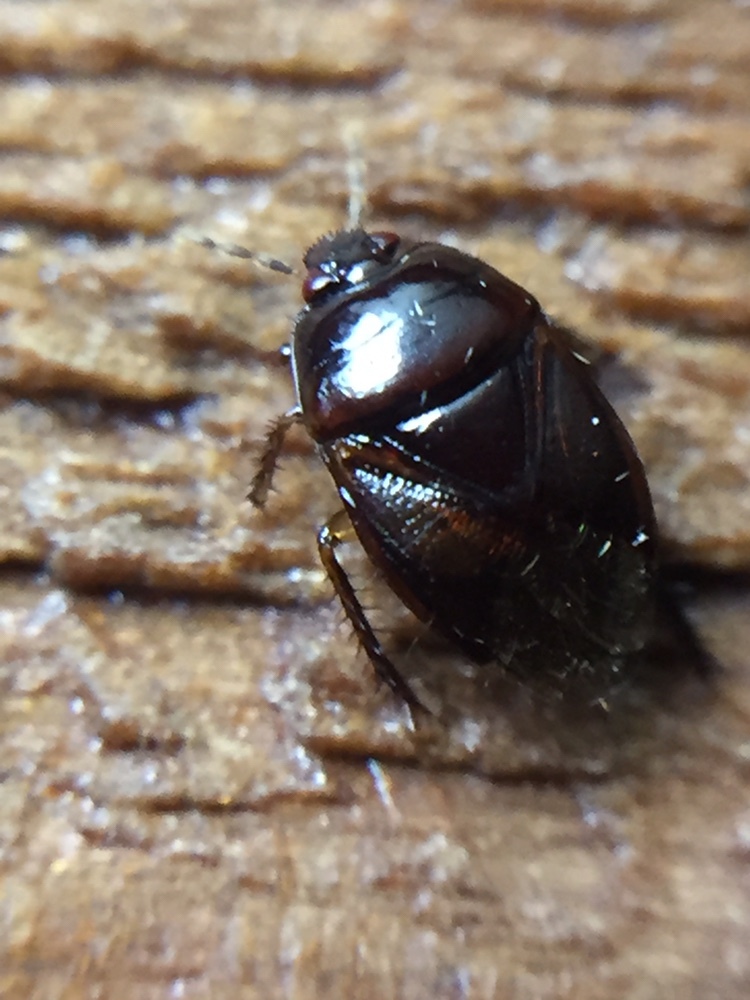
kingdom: Animalia
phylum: Arthropoda
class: Insecta
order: Hemiptera
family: Cydnidae
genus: Chilocoris
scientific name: Chilocoris neozealandicus
